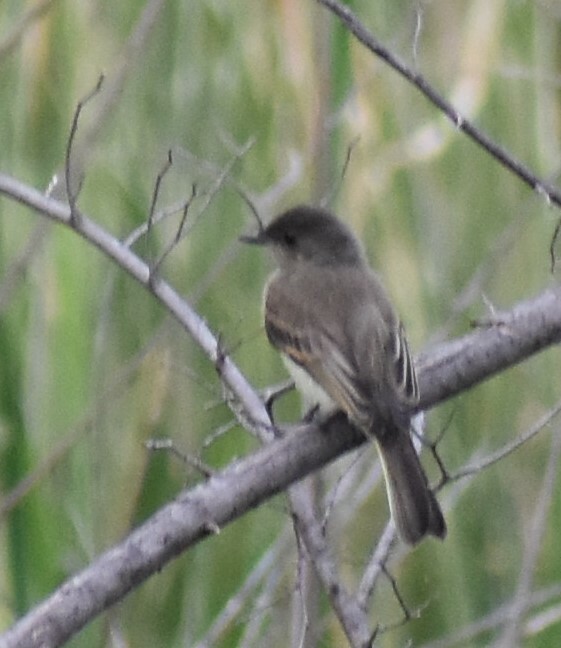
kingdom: Animalia
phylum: Chordata
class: Aves
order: Passeriformes
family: Tyrannidae
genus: Sayornis
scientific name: Sayornis phoebe
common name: Eastern phoebe
